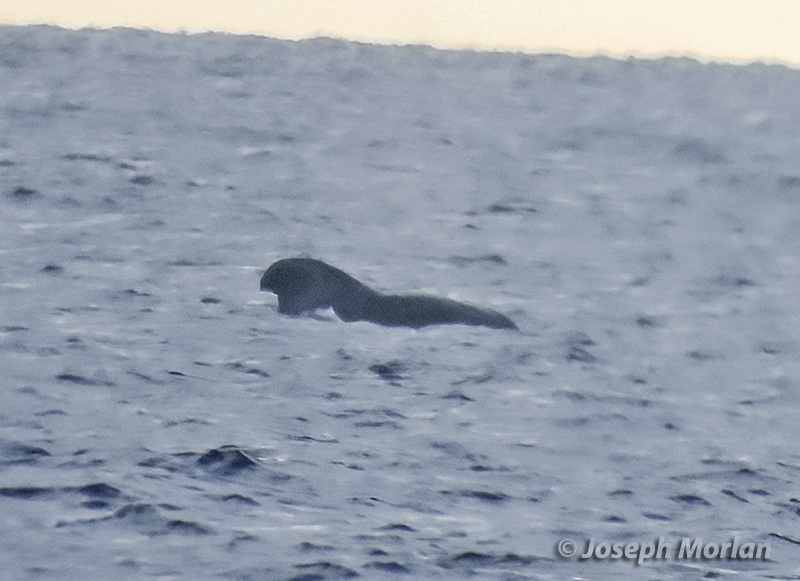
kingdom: Animalia
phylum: Chordata
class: Mammalia
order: Cetacea
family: Delphinidae
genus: Globicephala
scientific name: Globicephala macrorhynchus
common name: Short-finned pilot whale
